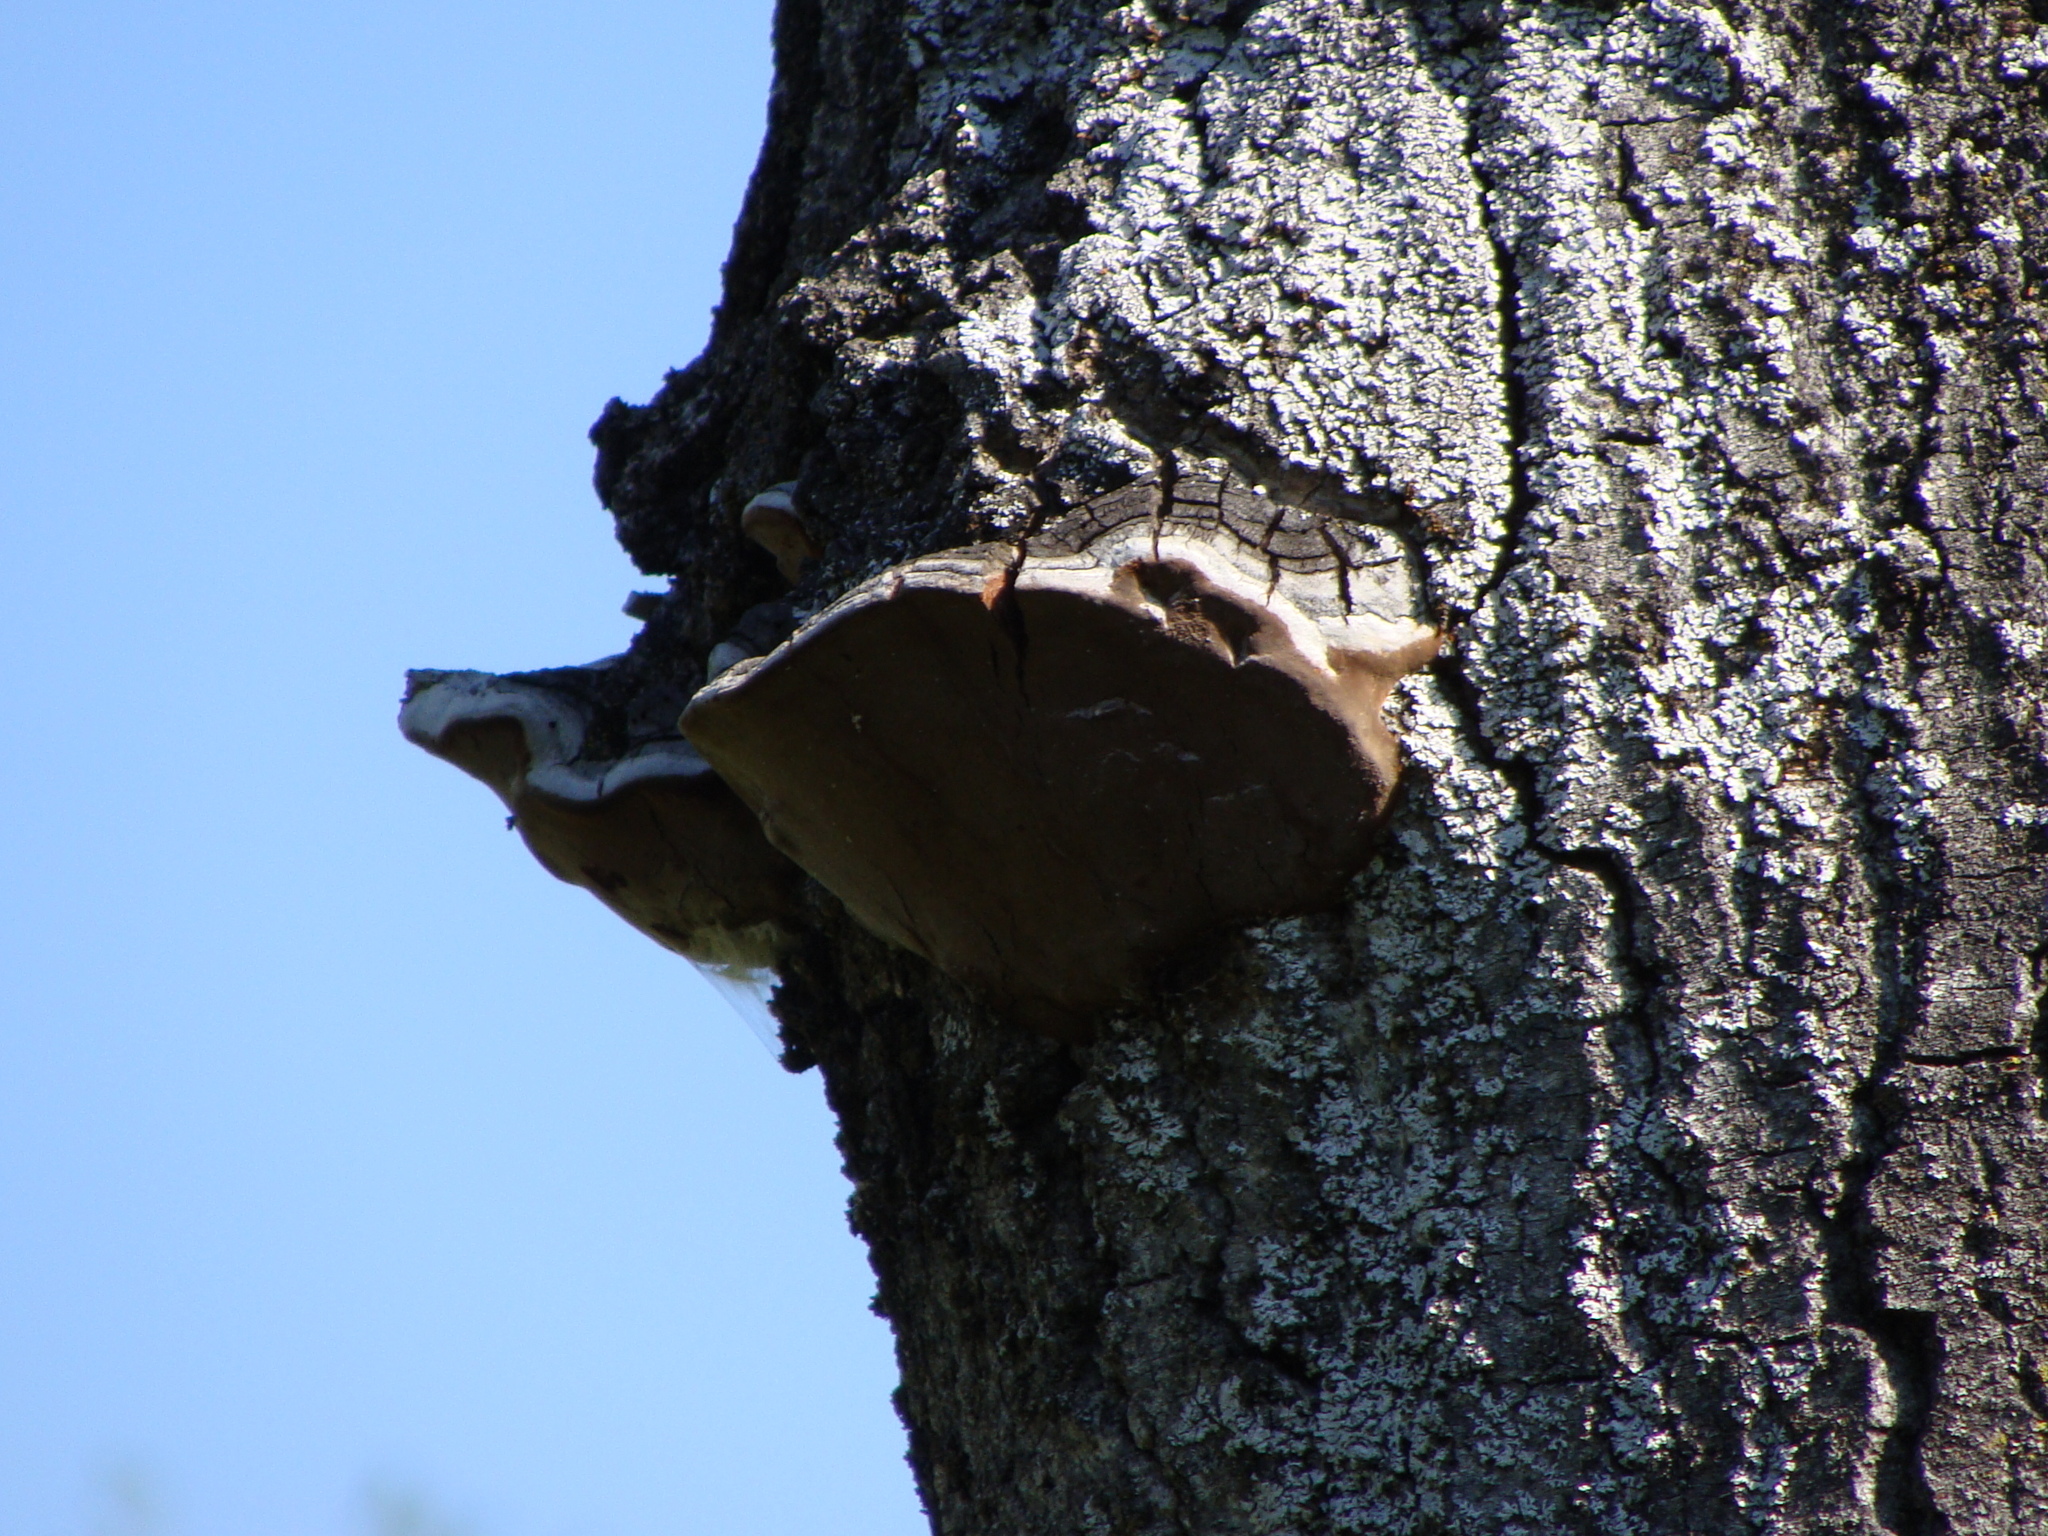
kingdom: Fungi
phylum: Basidiomycota
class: Agaricomycetes
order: Hymenochaetales
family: Hymenochaetaceae
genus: Phellinus
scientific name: Phellinus tremulae
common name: Aspen bracket
